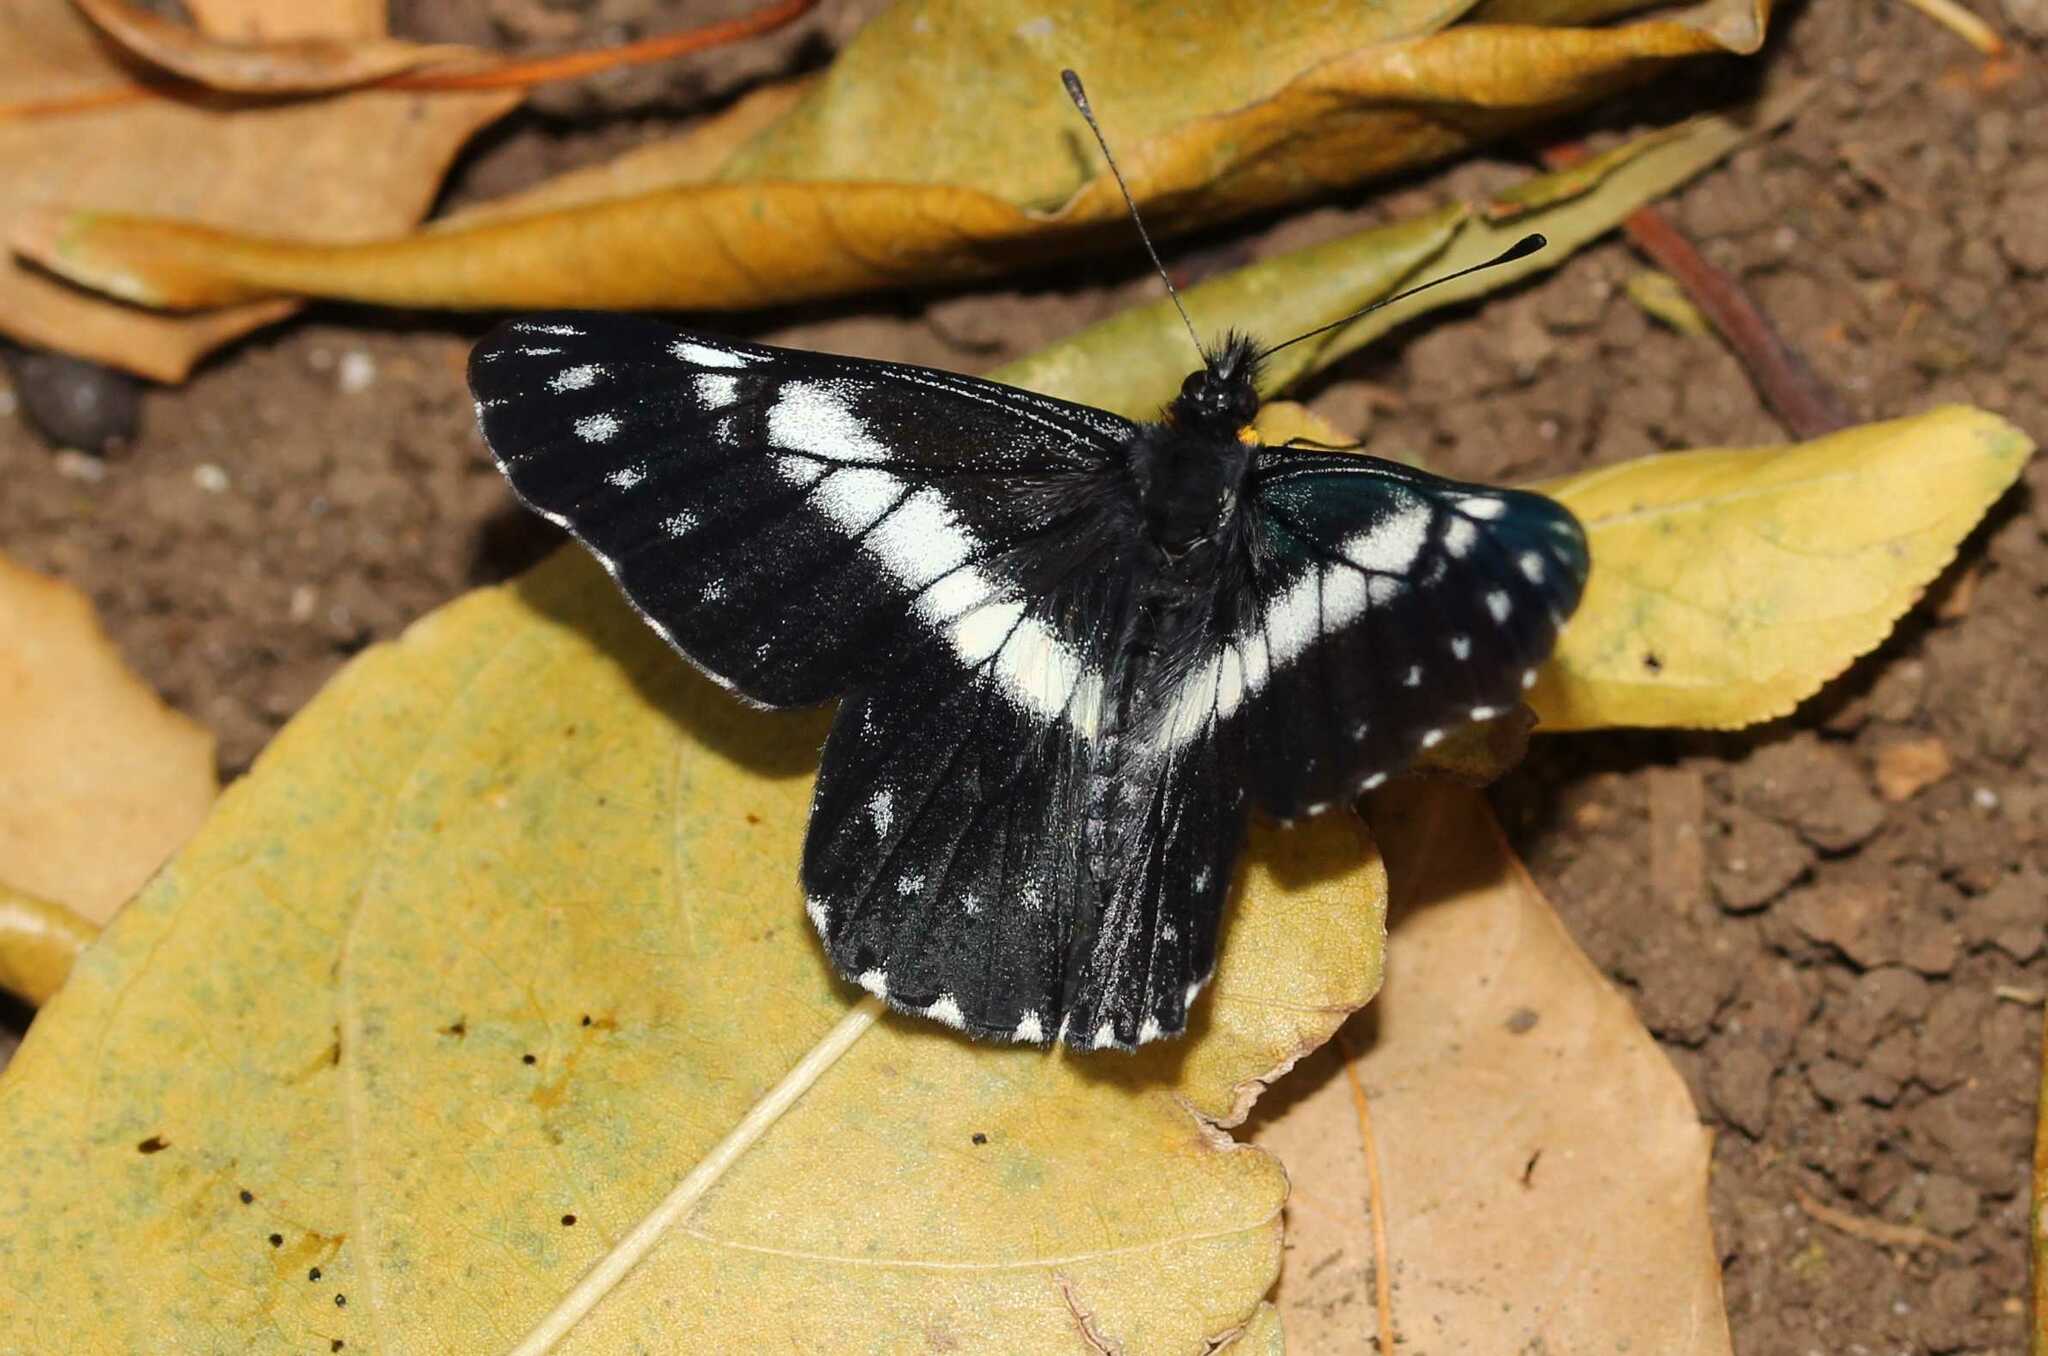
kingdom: Animalia
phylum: Arthropoda
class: Insecta
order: Lepidoptera
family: Pieridae
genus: Archonias
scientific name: Archonias teutila
